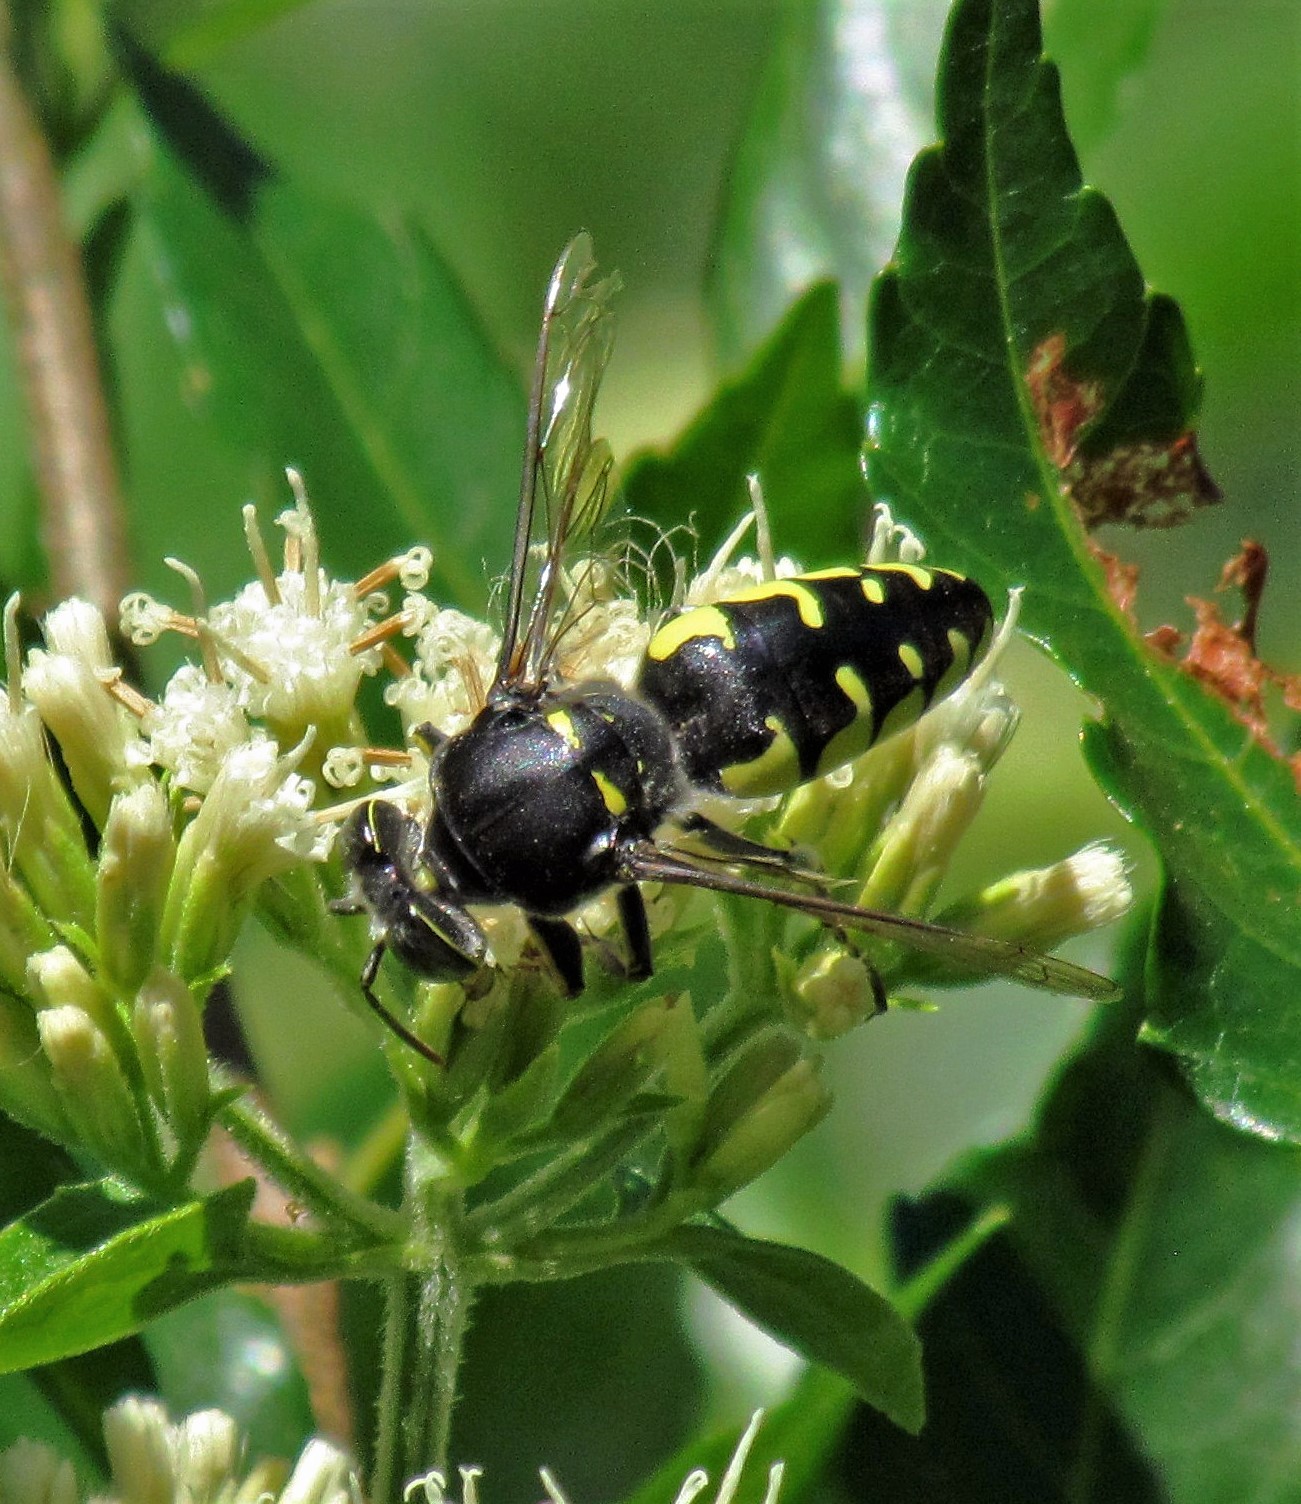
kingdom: Animalia
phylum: Arthropoda
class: Insecta
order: Hymenoptera
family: Crabronidae
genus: Stictia
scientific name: Stictia flexuosa
